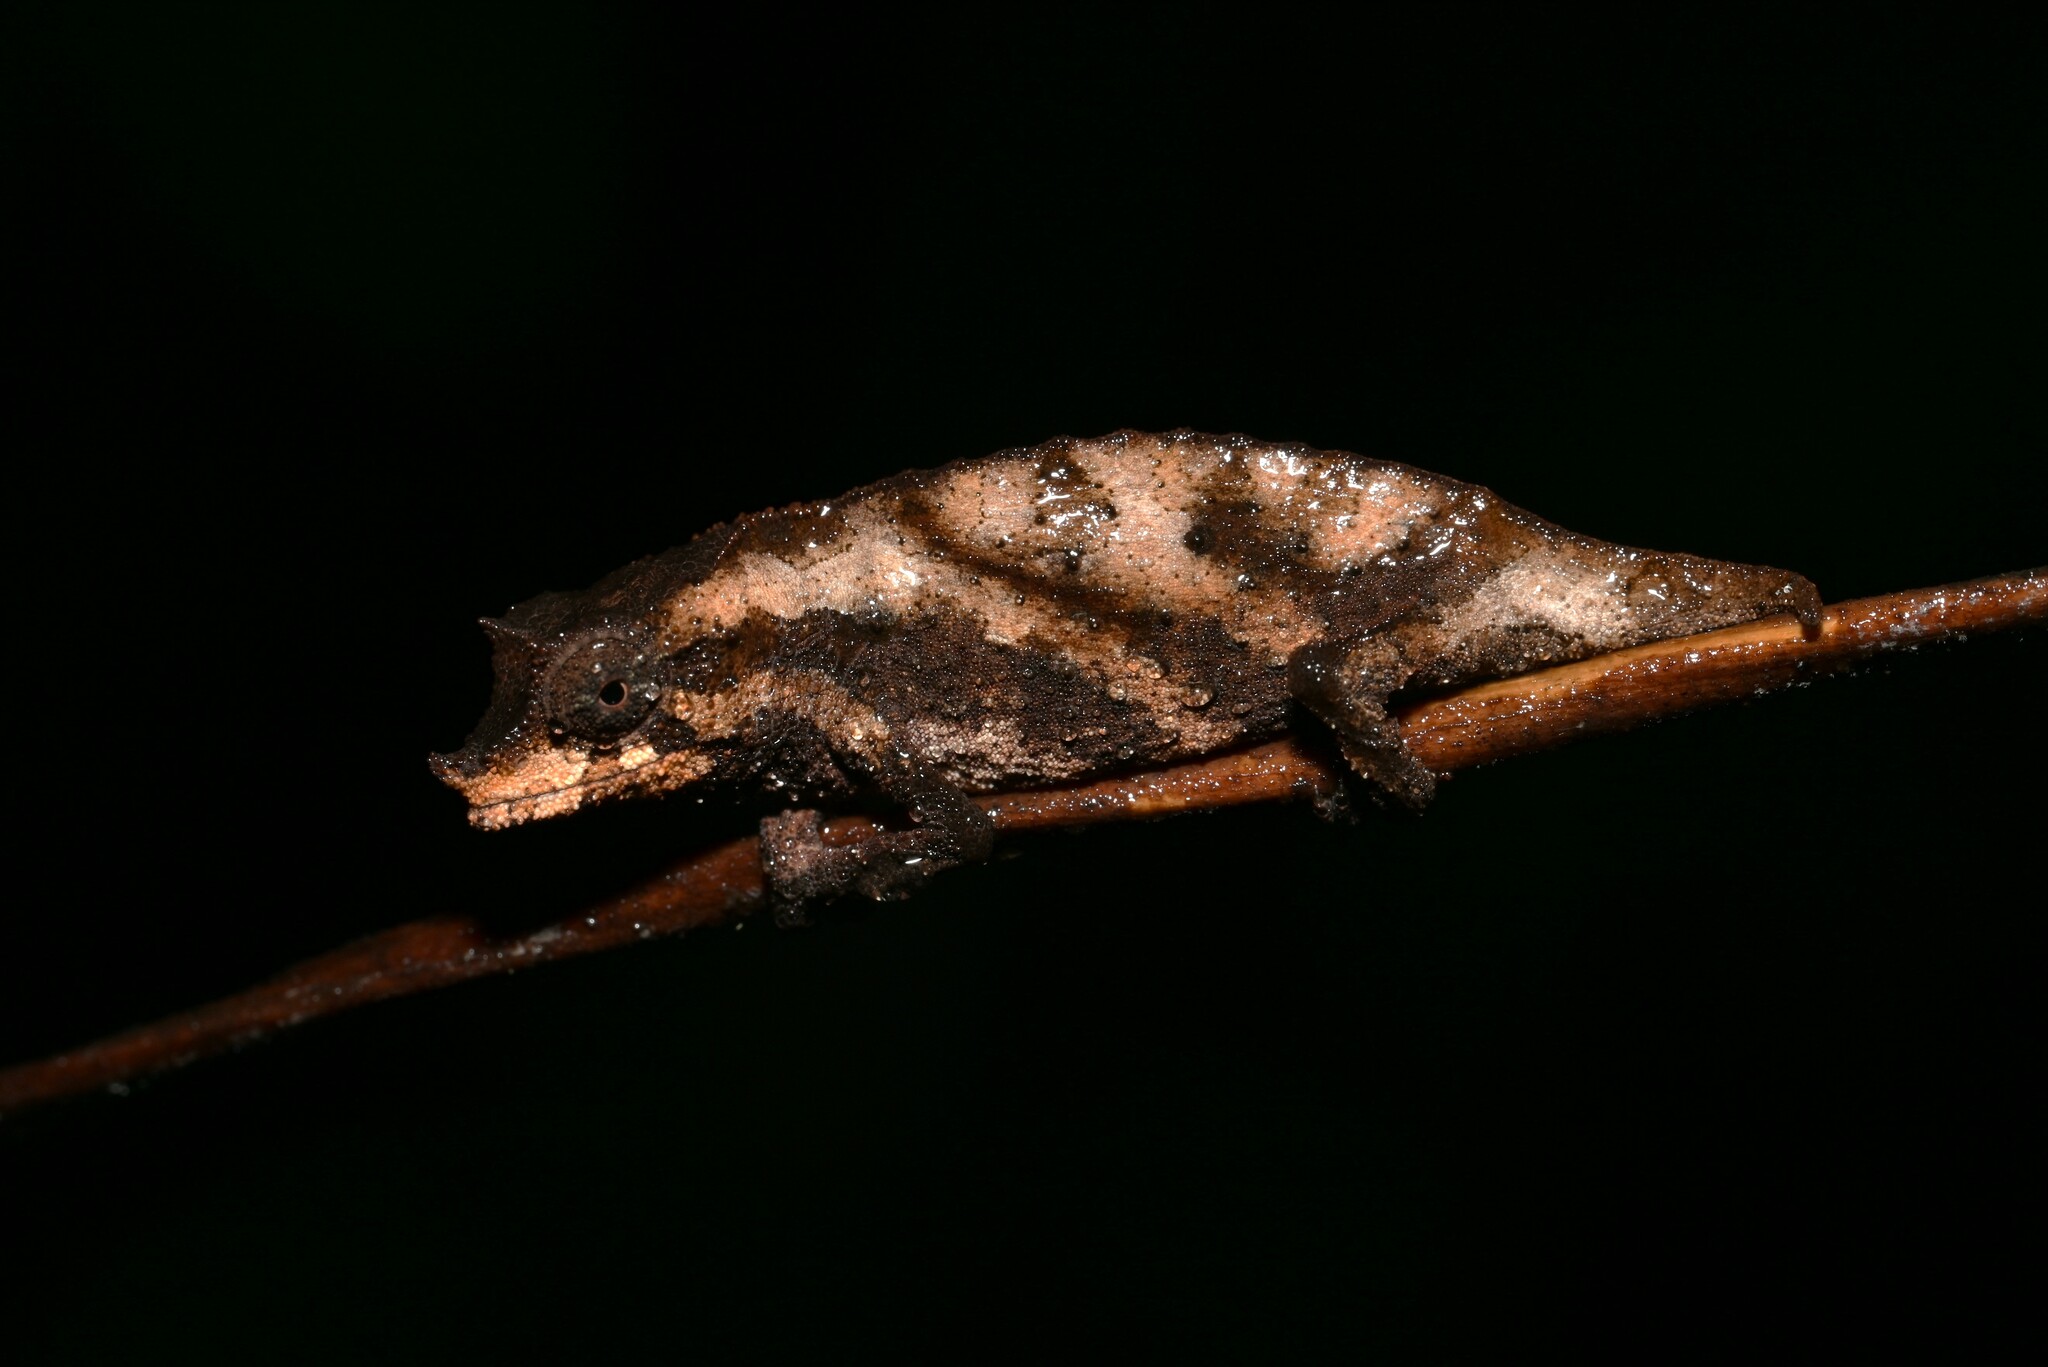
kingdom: Animalia
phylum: Chordata
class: Squamata
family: Chamaeleonidae
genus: Rhampholeon
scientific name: Rhampholeon nchisiensis
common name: South african stumptail chameleon
